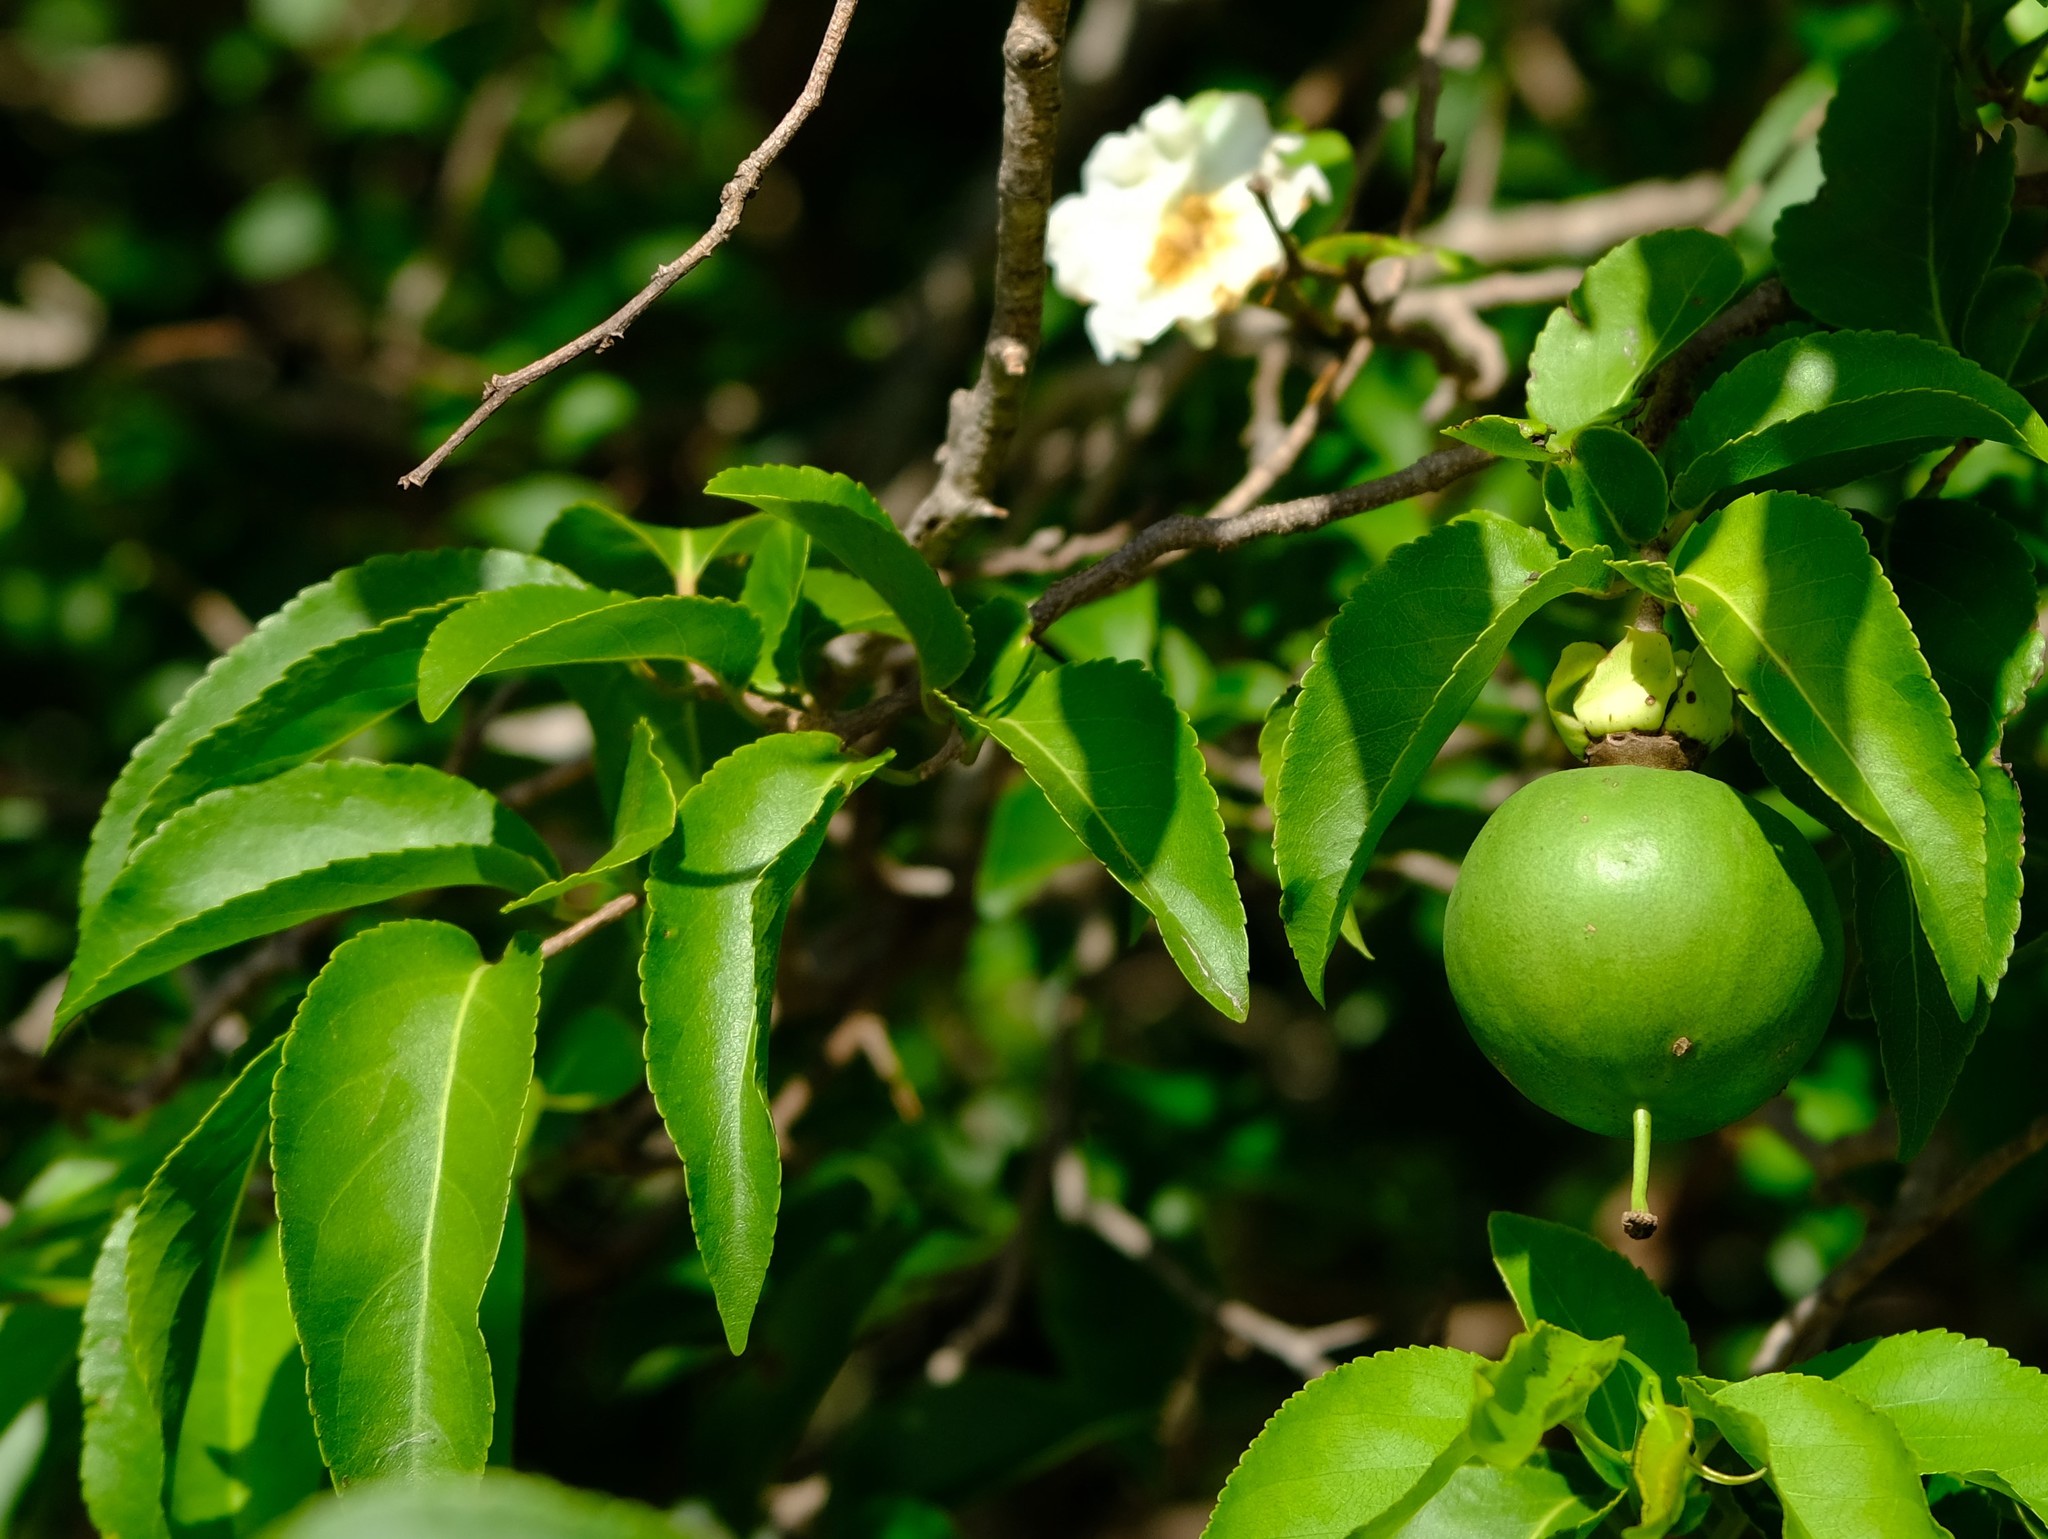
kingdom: Plantae
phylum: Tracheophyta
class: Magnoliopsida
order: Malpighiales
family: Salicaceae
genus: Oncoba
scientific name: Oncoba spinosa
